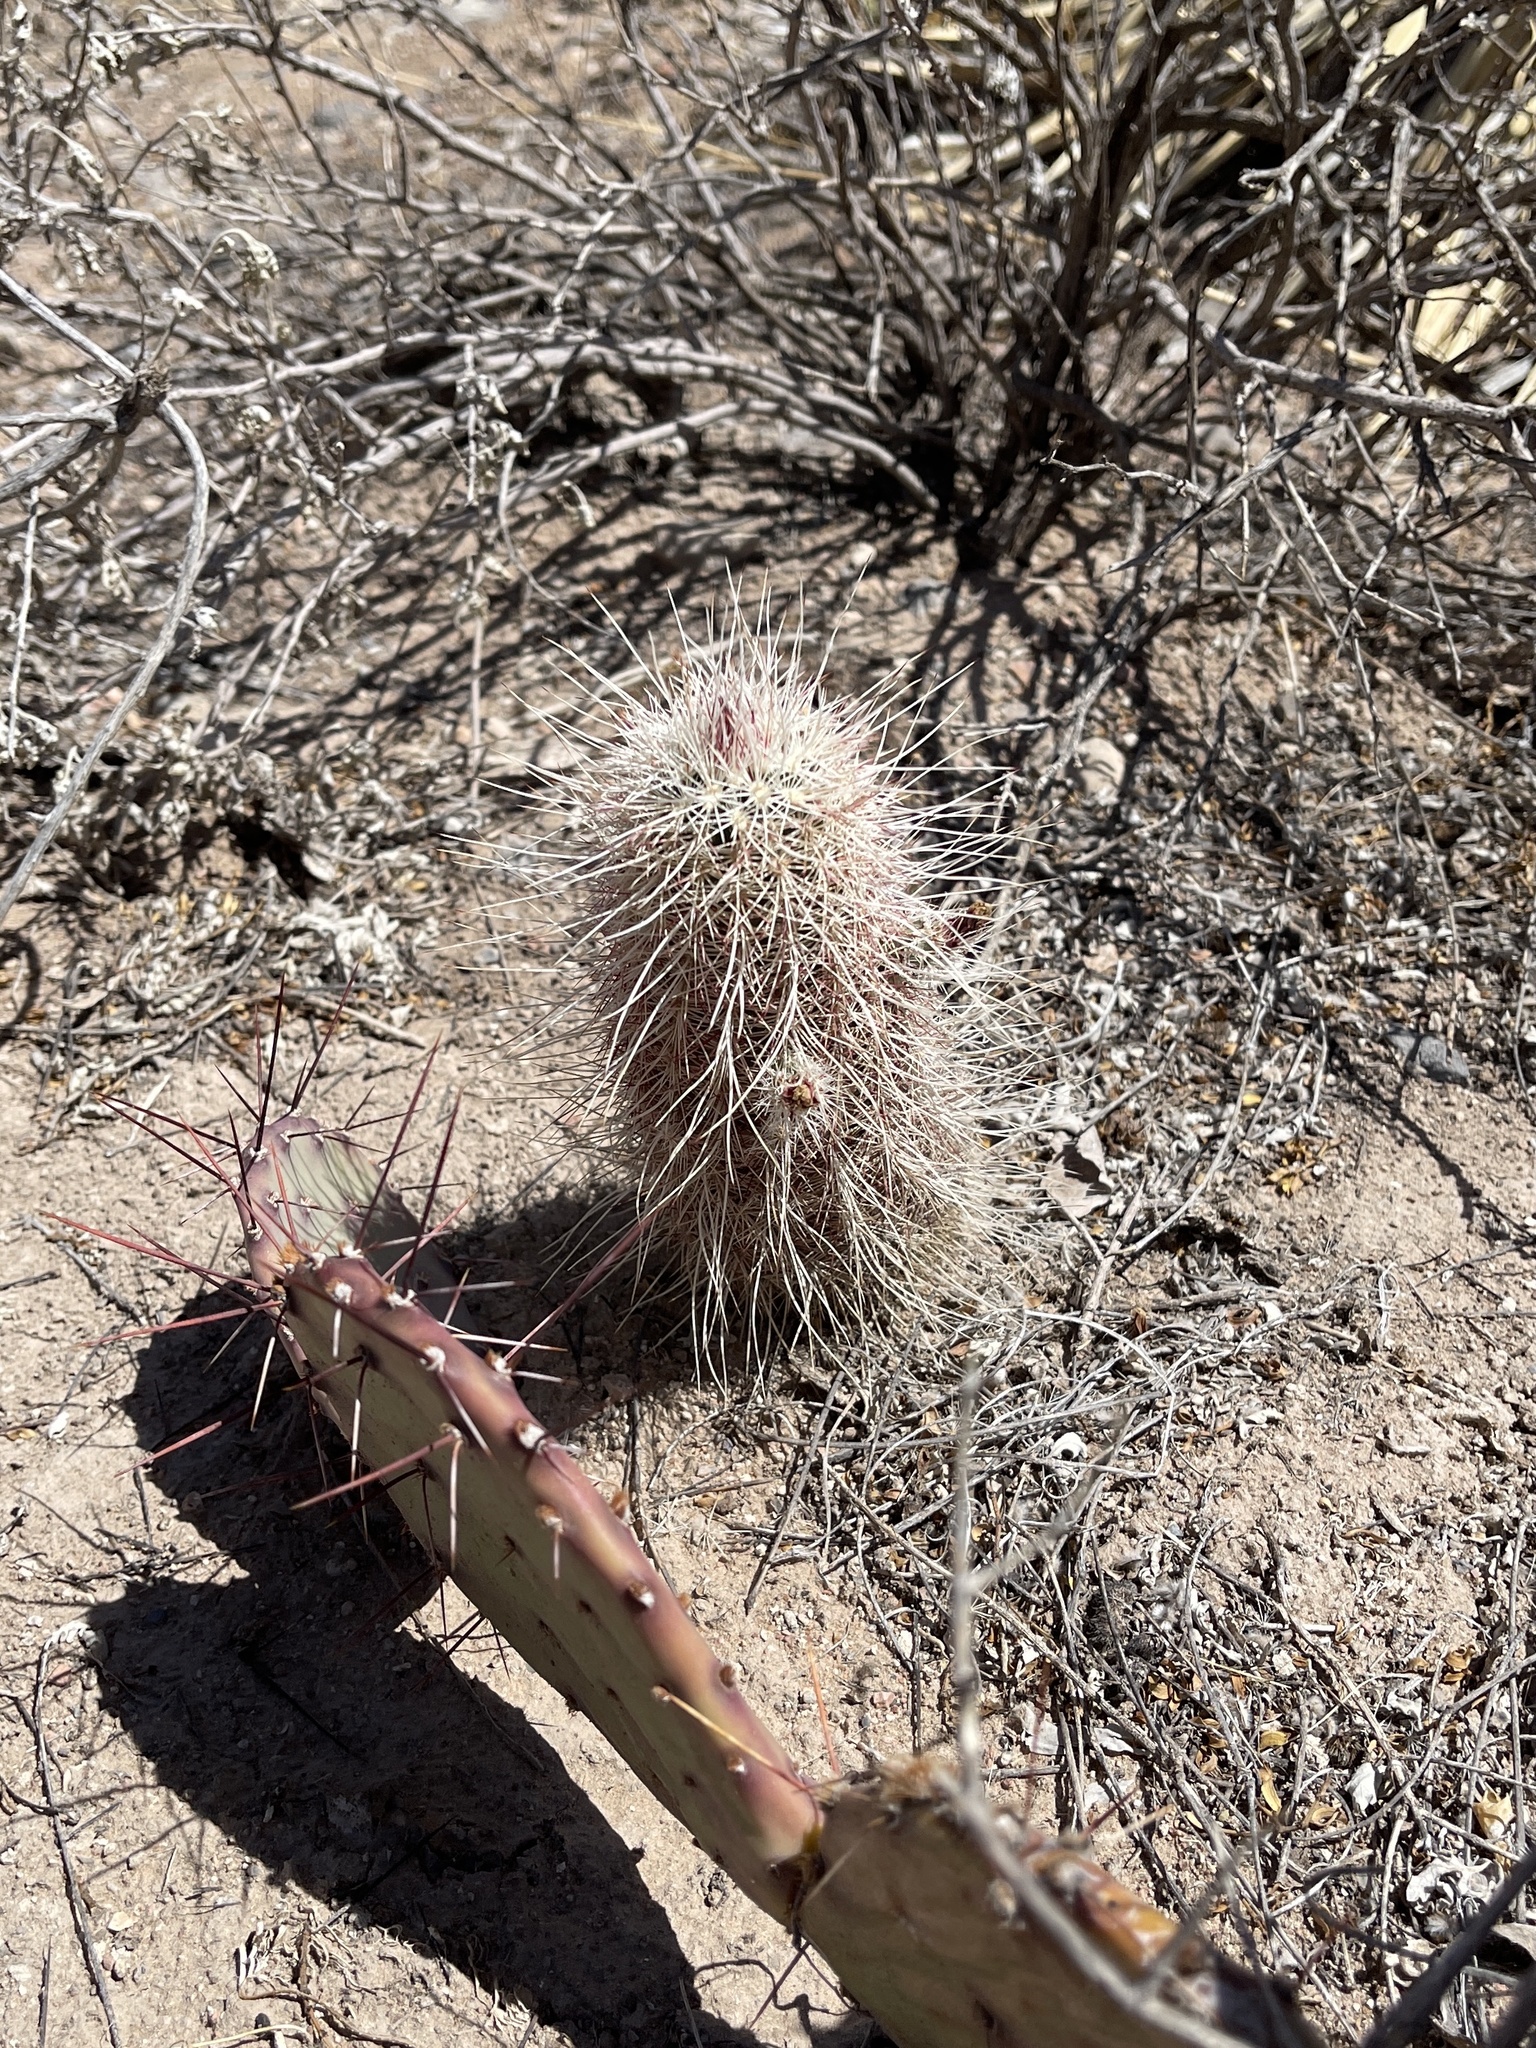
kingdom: Plantae
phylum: Tracheophyta
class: Magnoliopsida
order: Caryophyllales
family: Cactaceae
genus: Echinocereus
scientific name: Echinocereus viridiflorus
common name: Nylon hedgehog cactus
